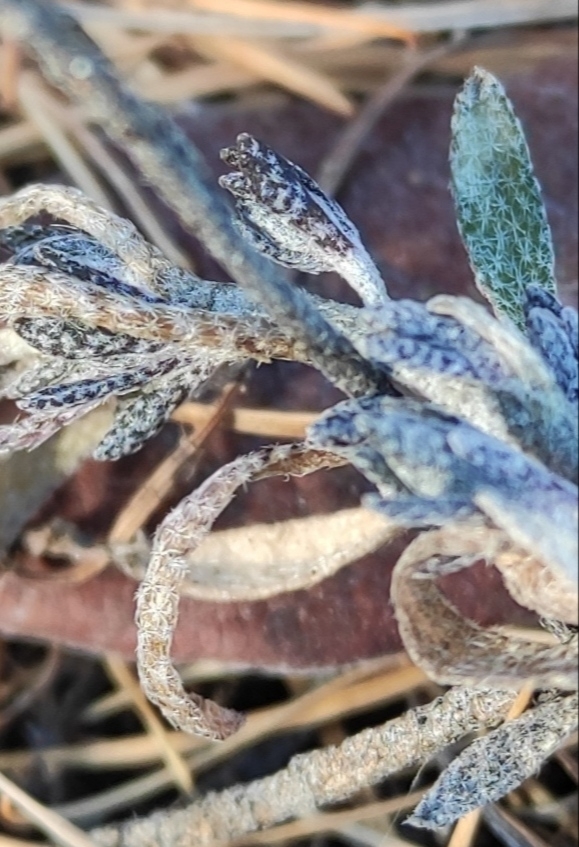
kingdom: Plantae
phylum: Tracheophyta
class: Magnoliopsida
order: Brassicales
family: Brassicaceae
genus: Alyssum
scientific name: Alyssum lenense
